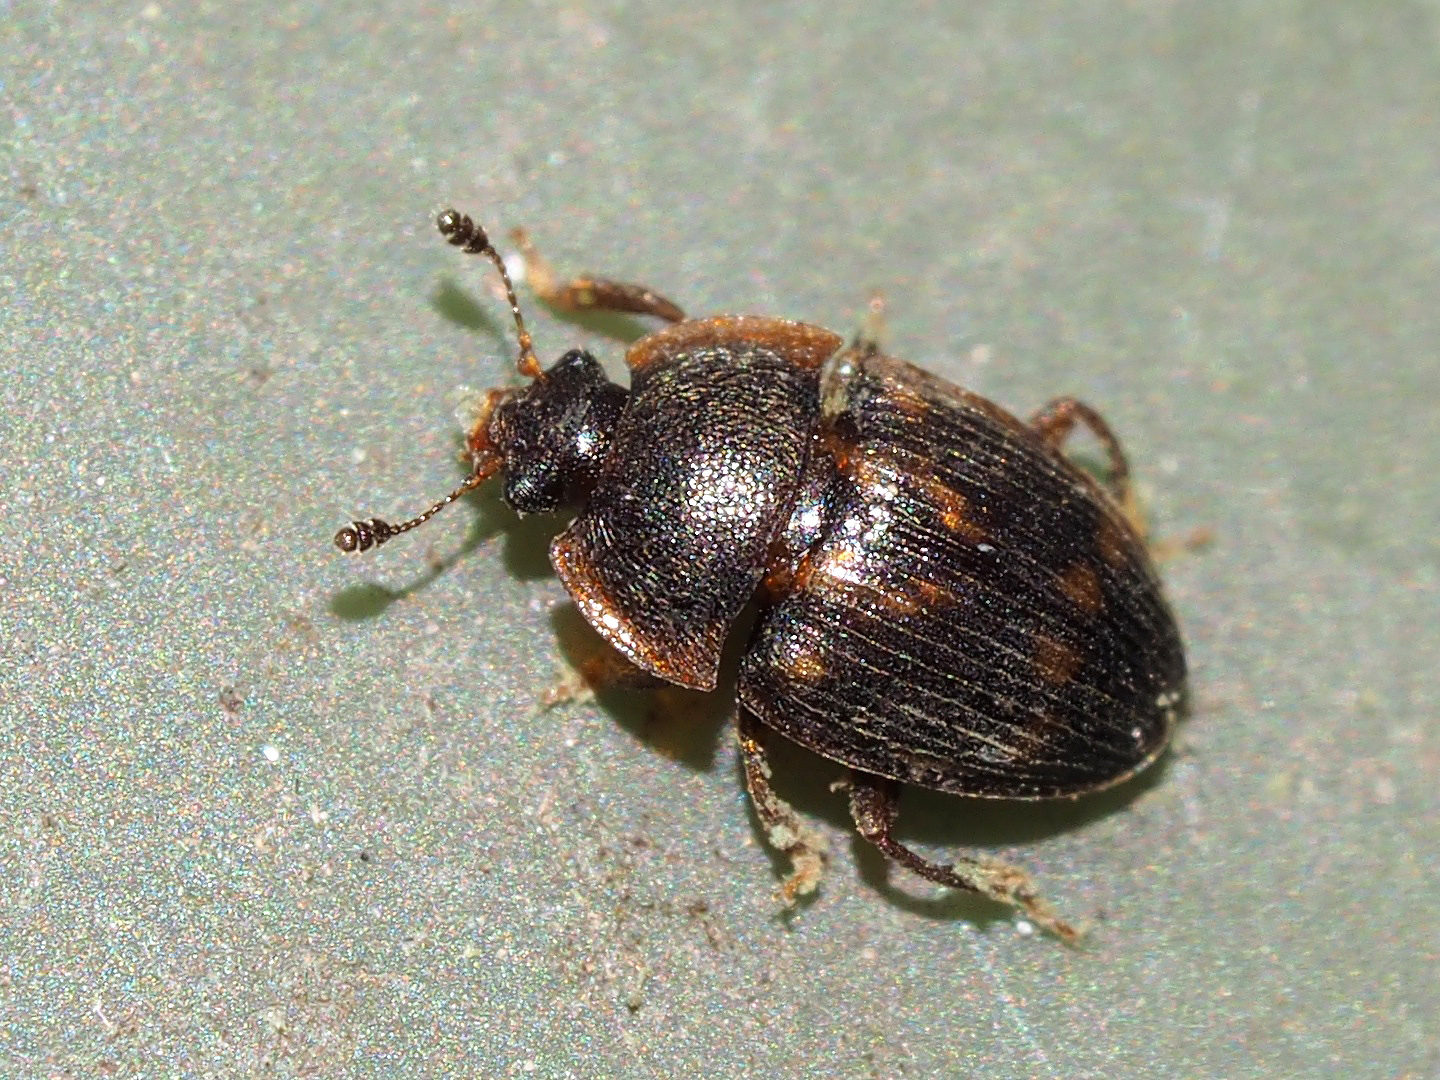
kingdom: Animalia
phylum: Arthropoda
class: Insecta
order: Coleoptera
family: Nitidulidae
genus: Stelidota
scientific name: Stelidota geminata
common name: Strawberry sap beetle
